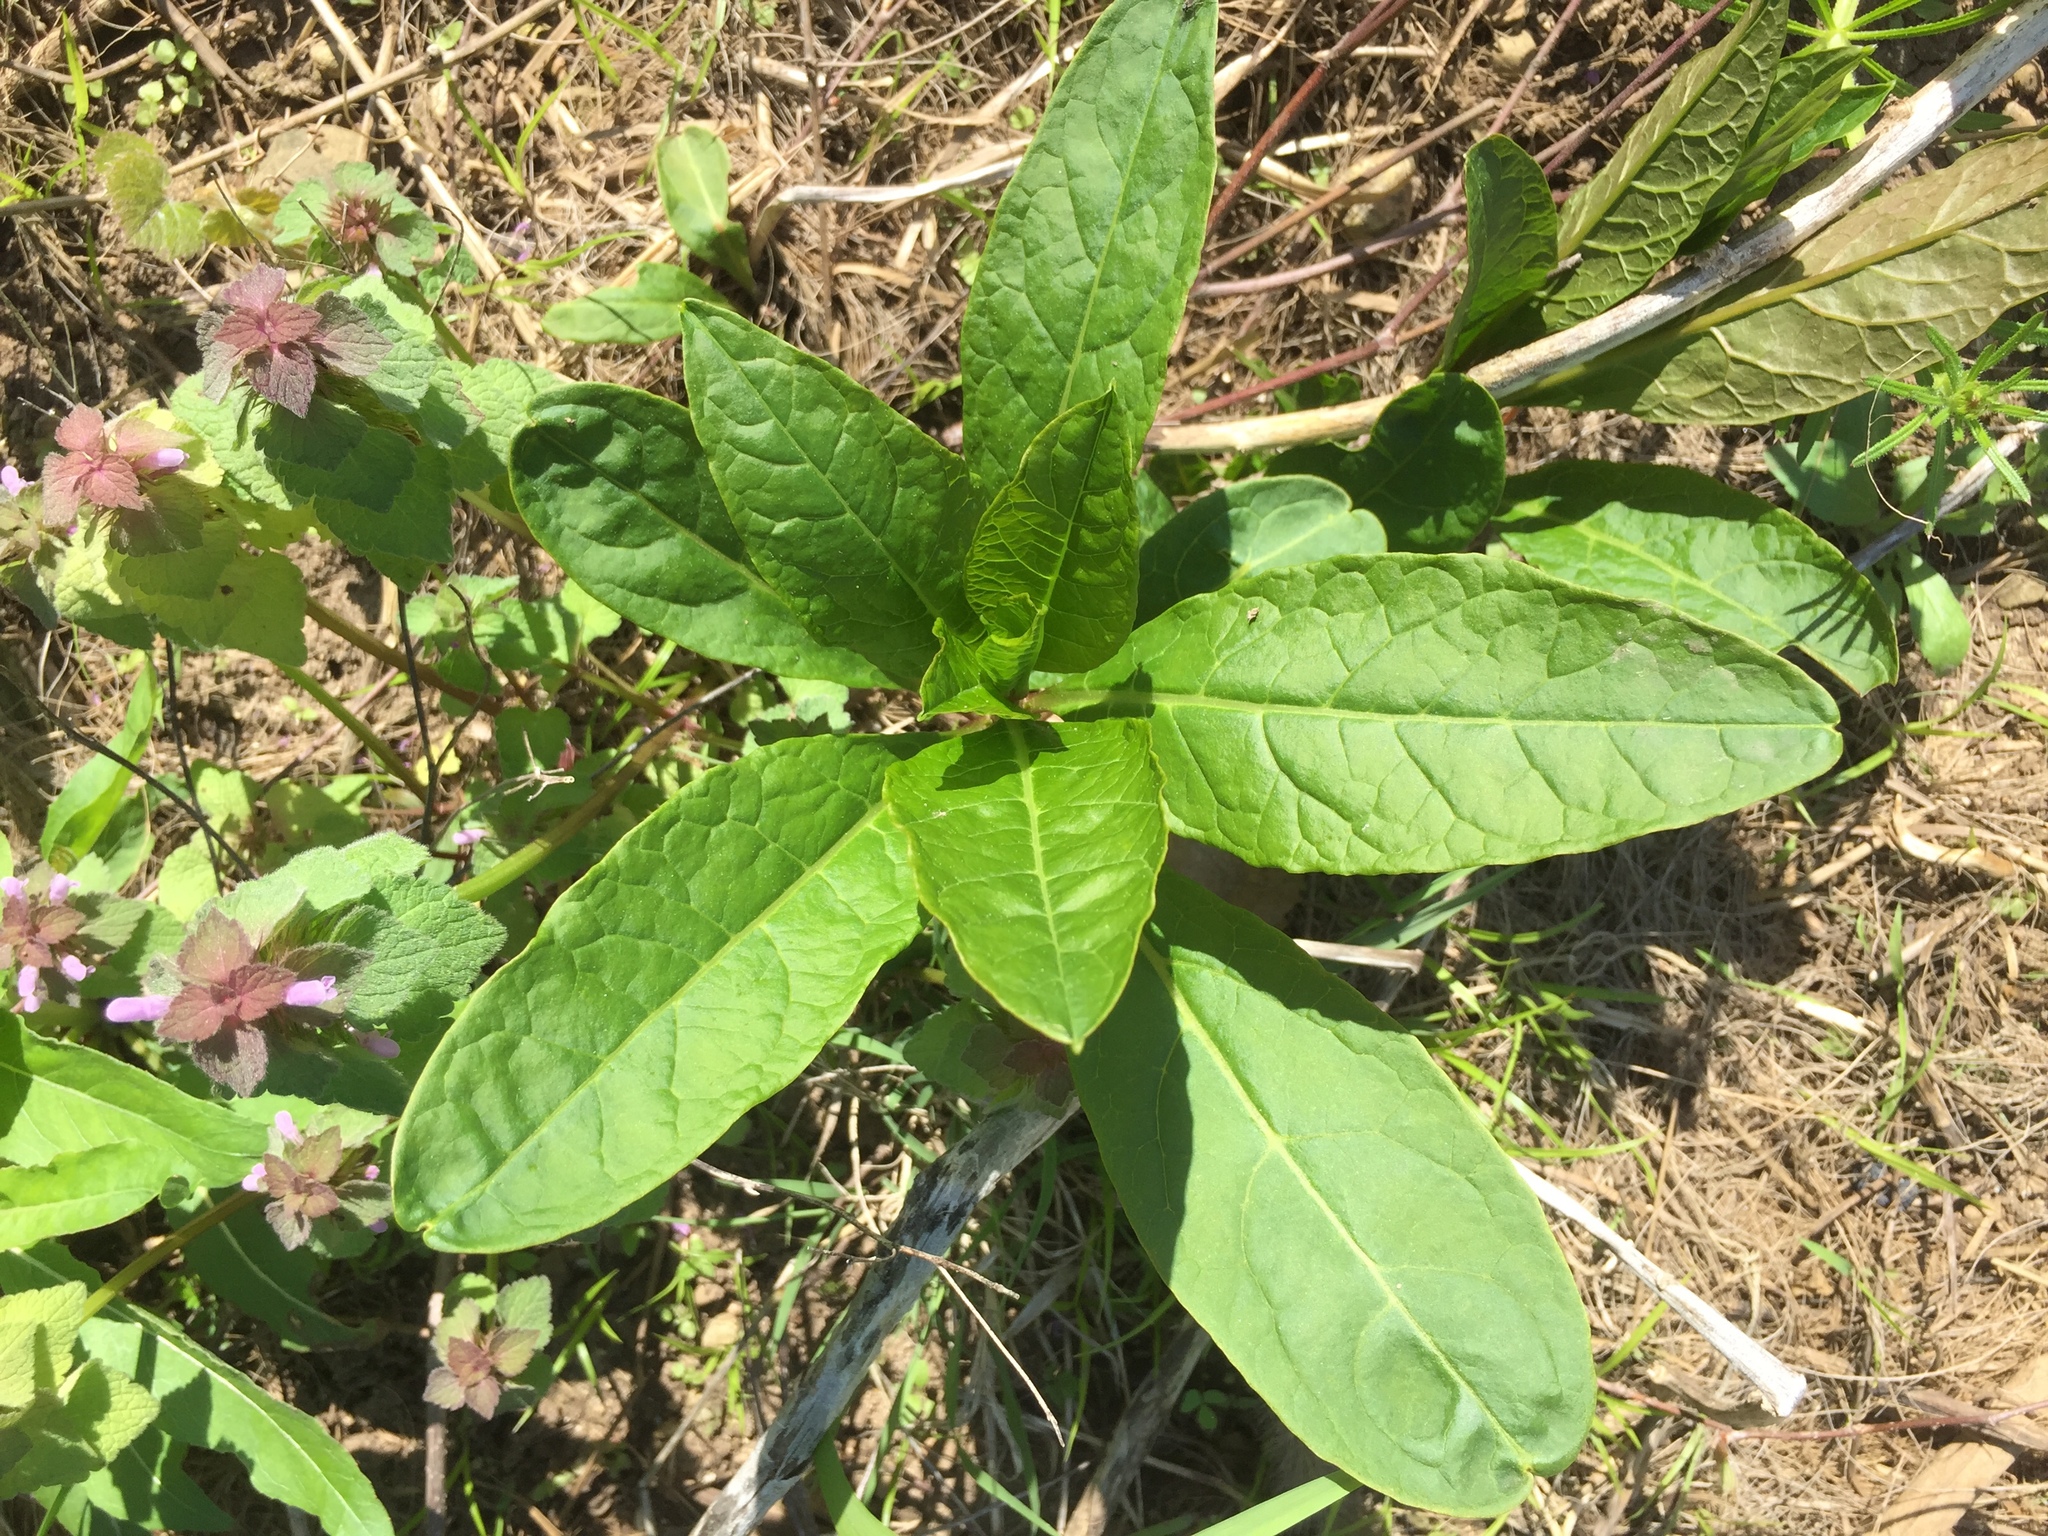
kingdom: Plantae
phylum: Tracheophyta
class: Magnoliopsida
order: Caryophyllales
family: Phytolaccaceae
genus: Phytolacca
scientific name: Phytolacca americana
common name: American pokeweed
